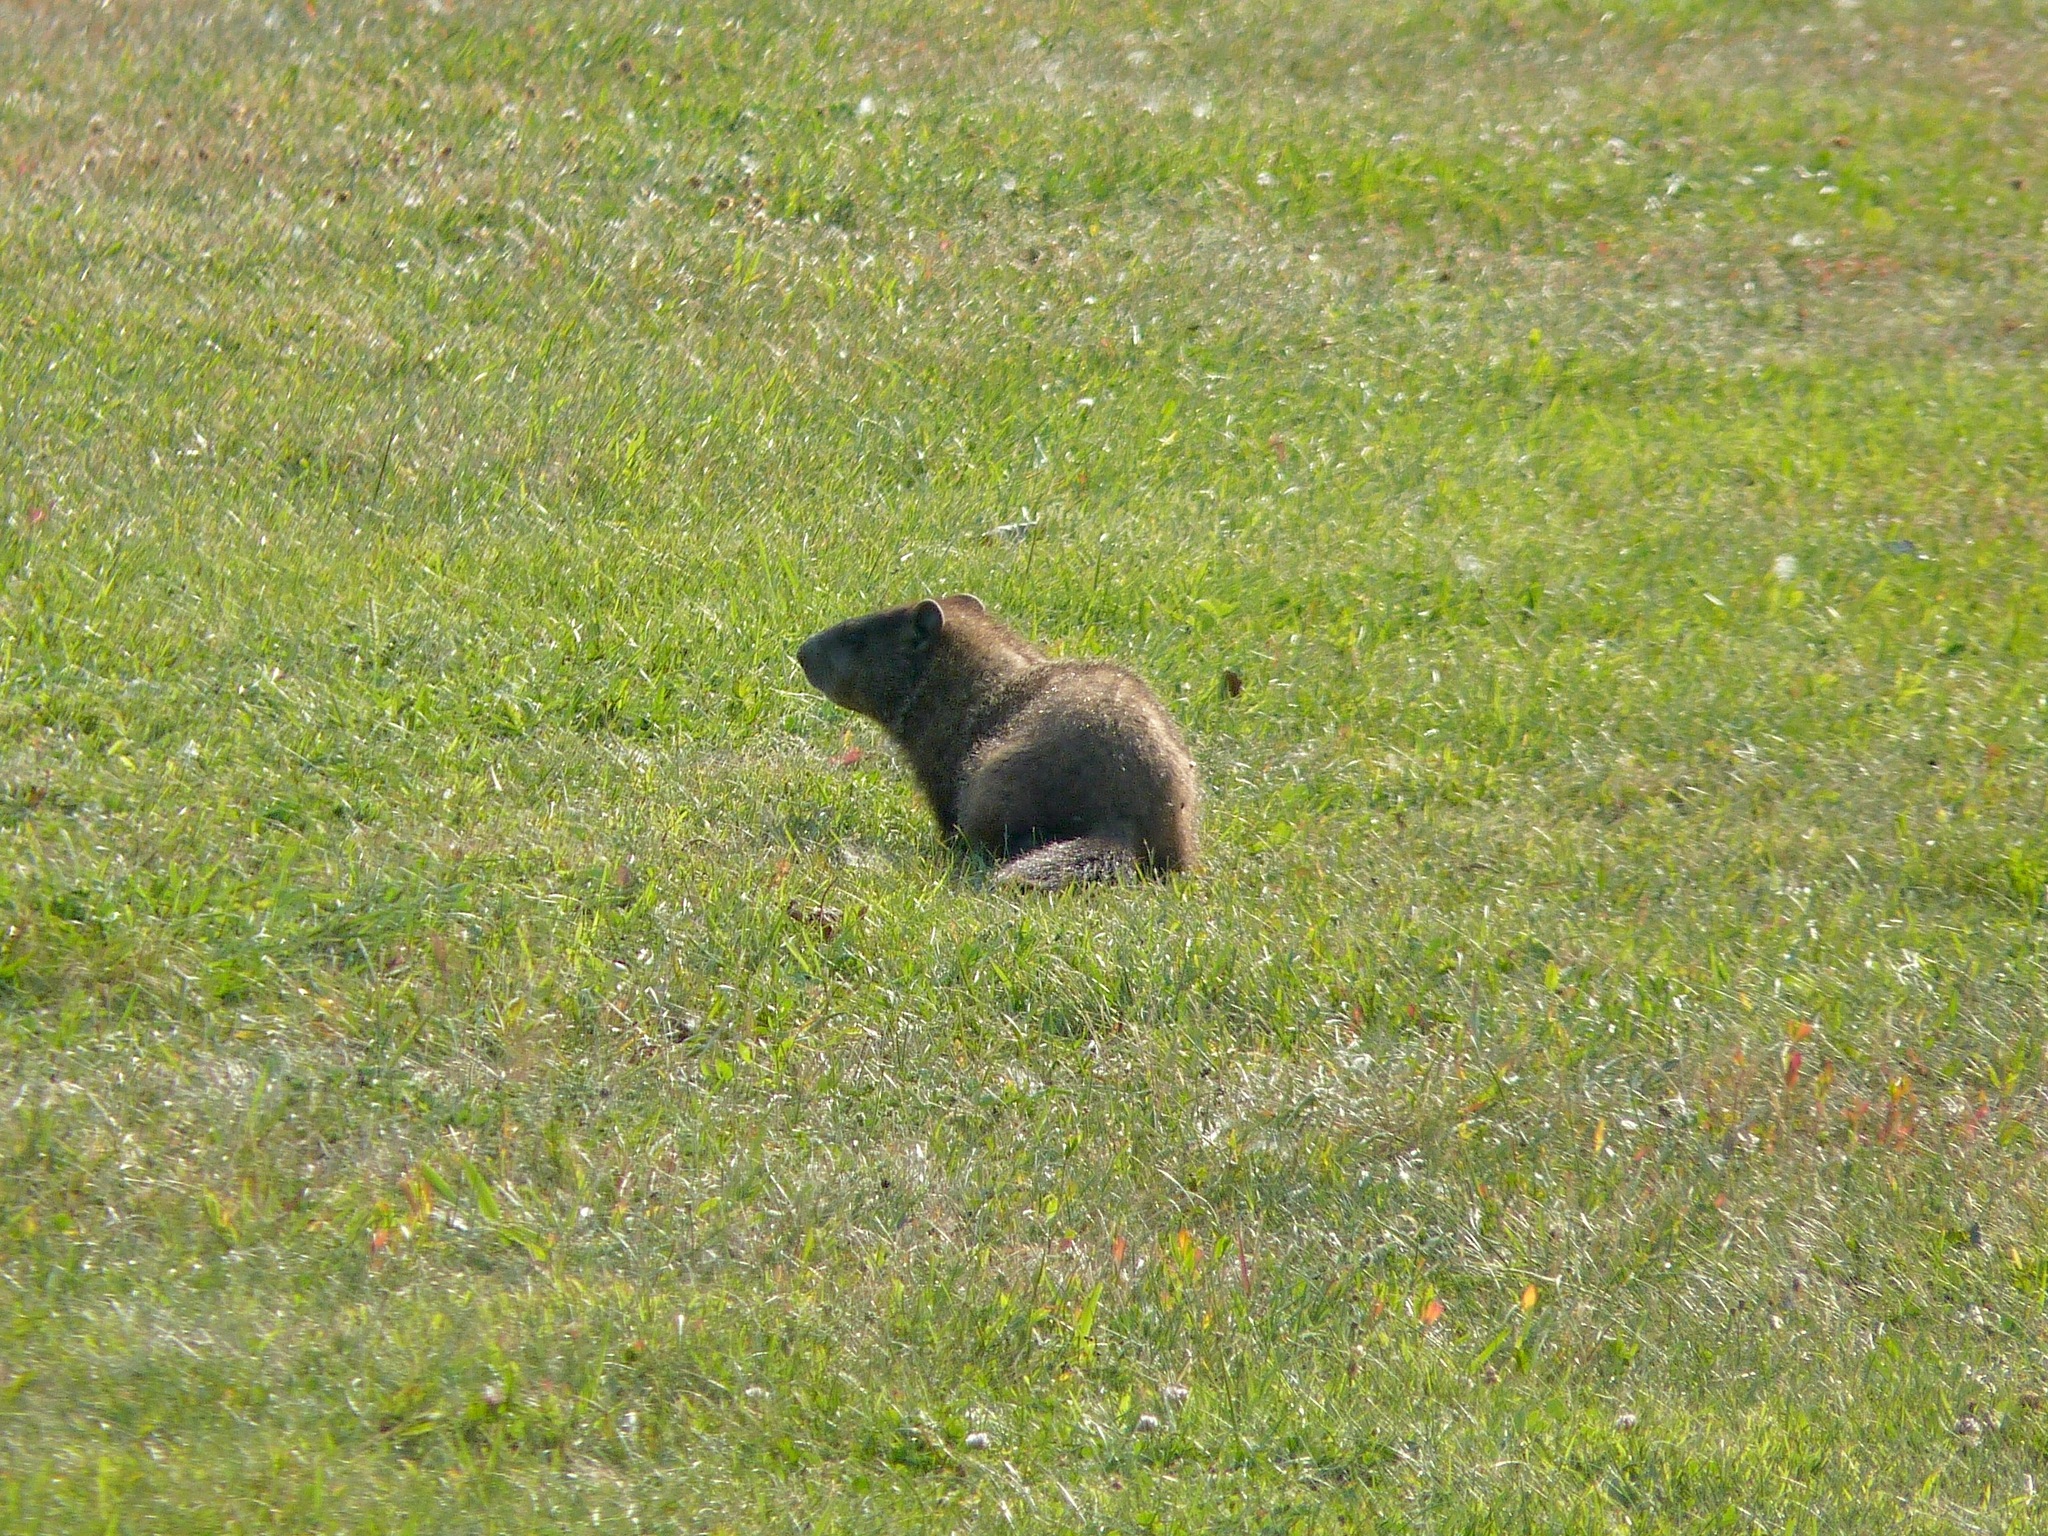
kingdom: Animalia
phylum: Chordata
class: Mammalia
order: Rodentia
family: Sciuridae
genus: Marmota
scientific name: Marmota monax
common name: Groundhog
